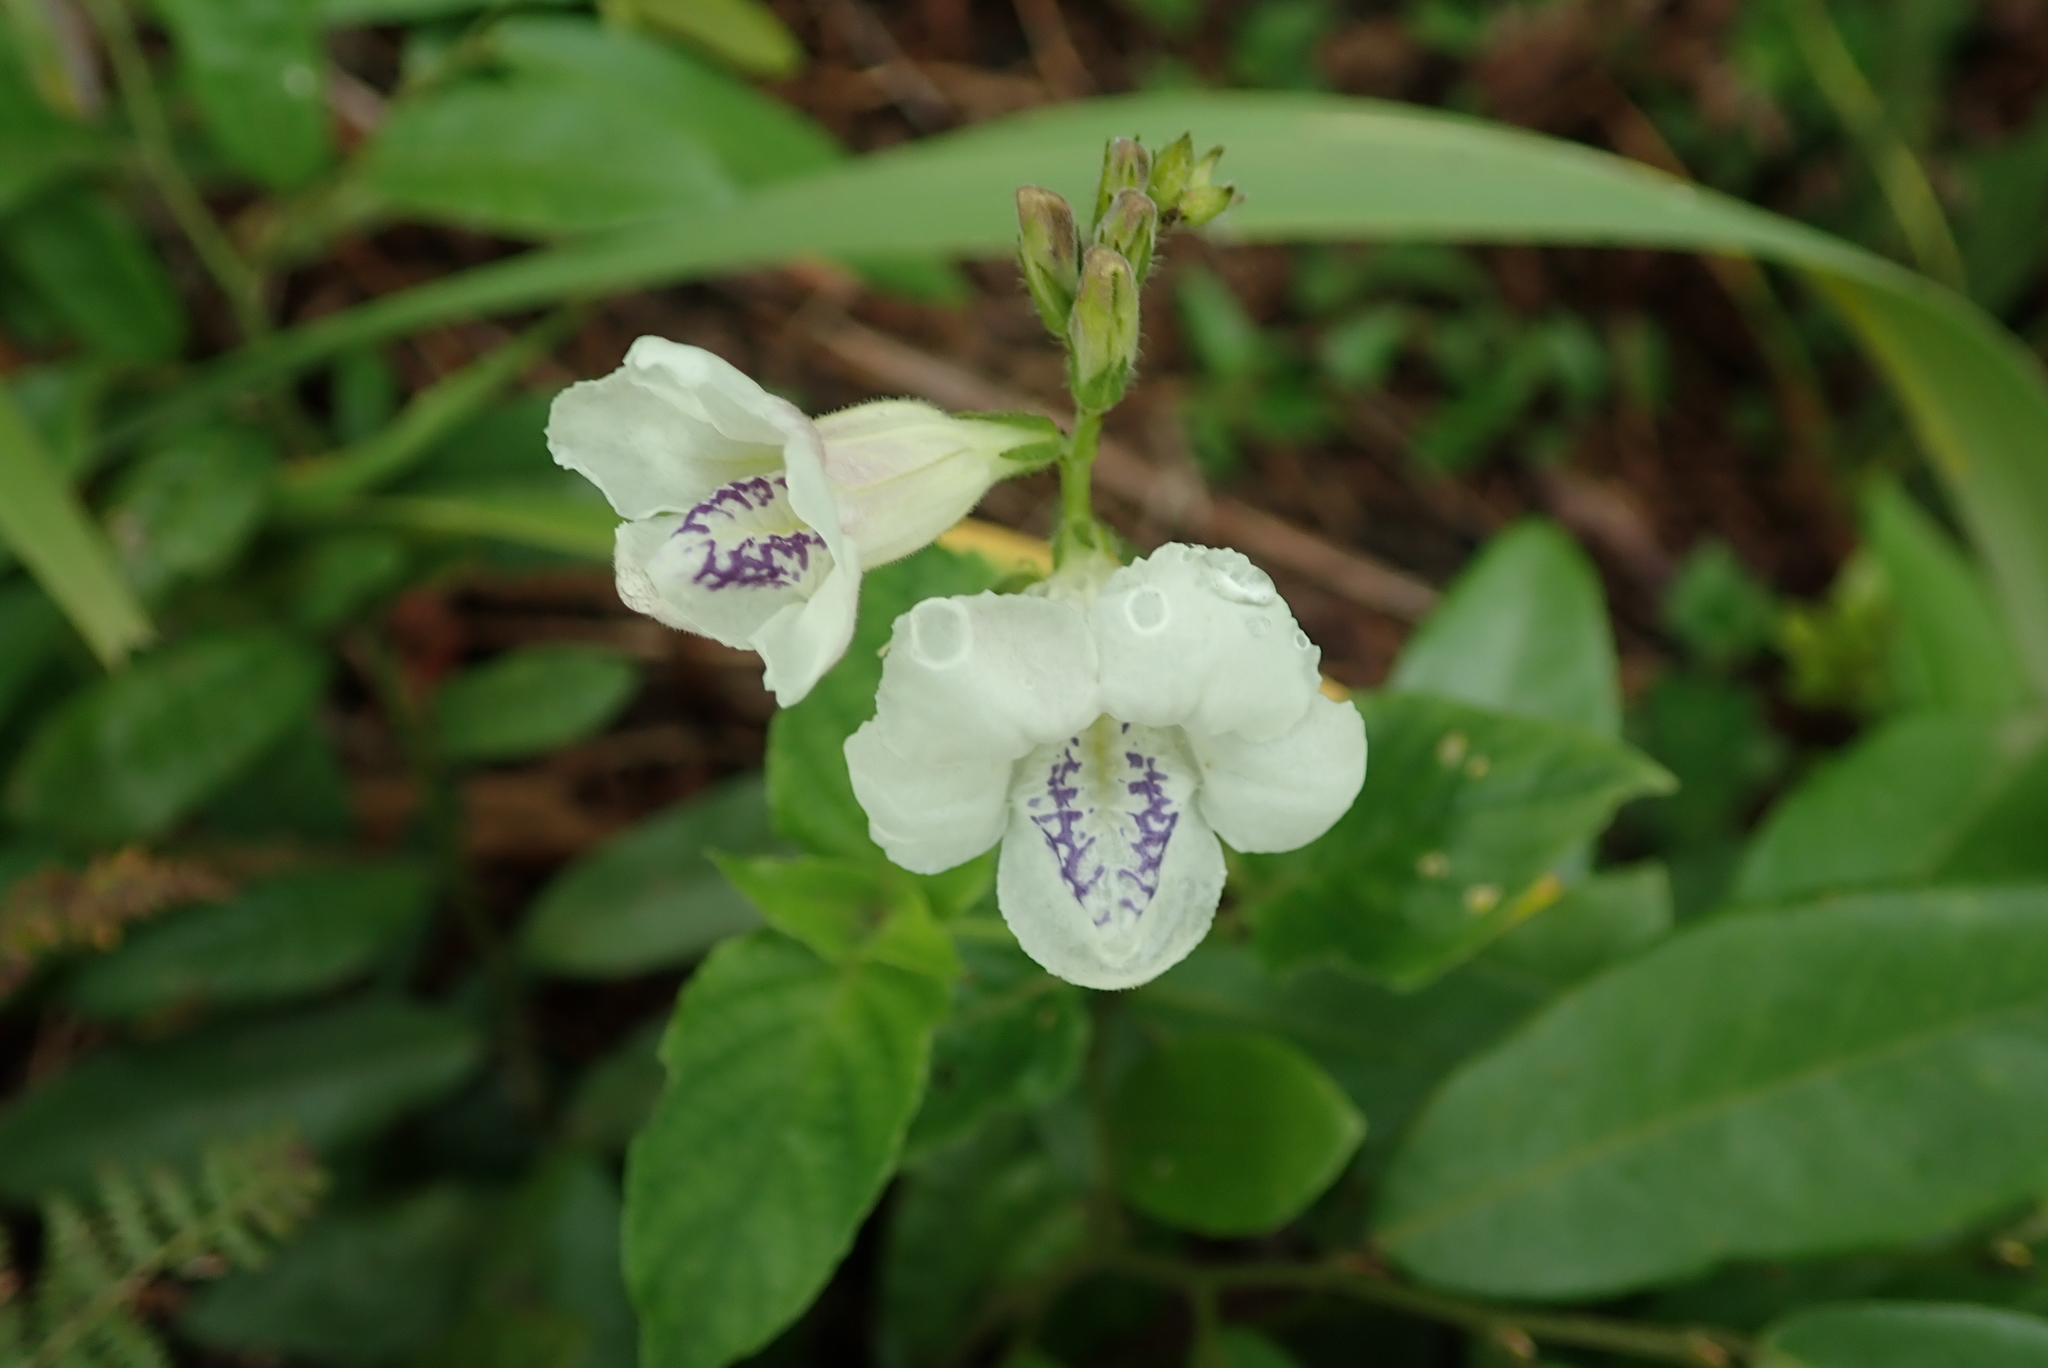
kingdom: Plantae
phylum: Tracheophyta
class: Magnoliopsida
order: Lamiales
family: Acanthaceae
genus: Asystasia
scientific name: Asystasia intrusa
